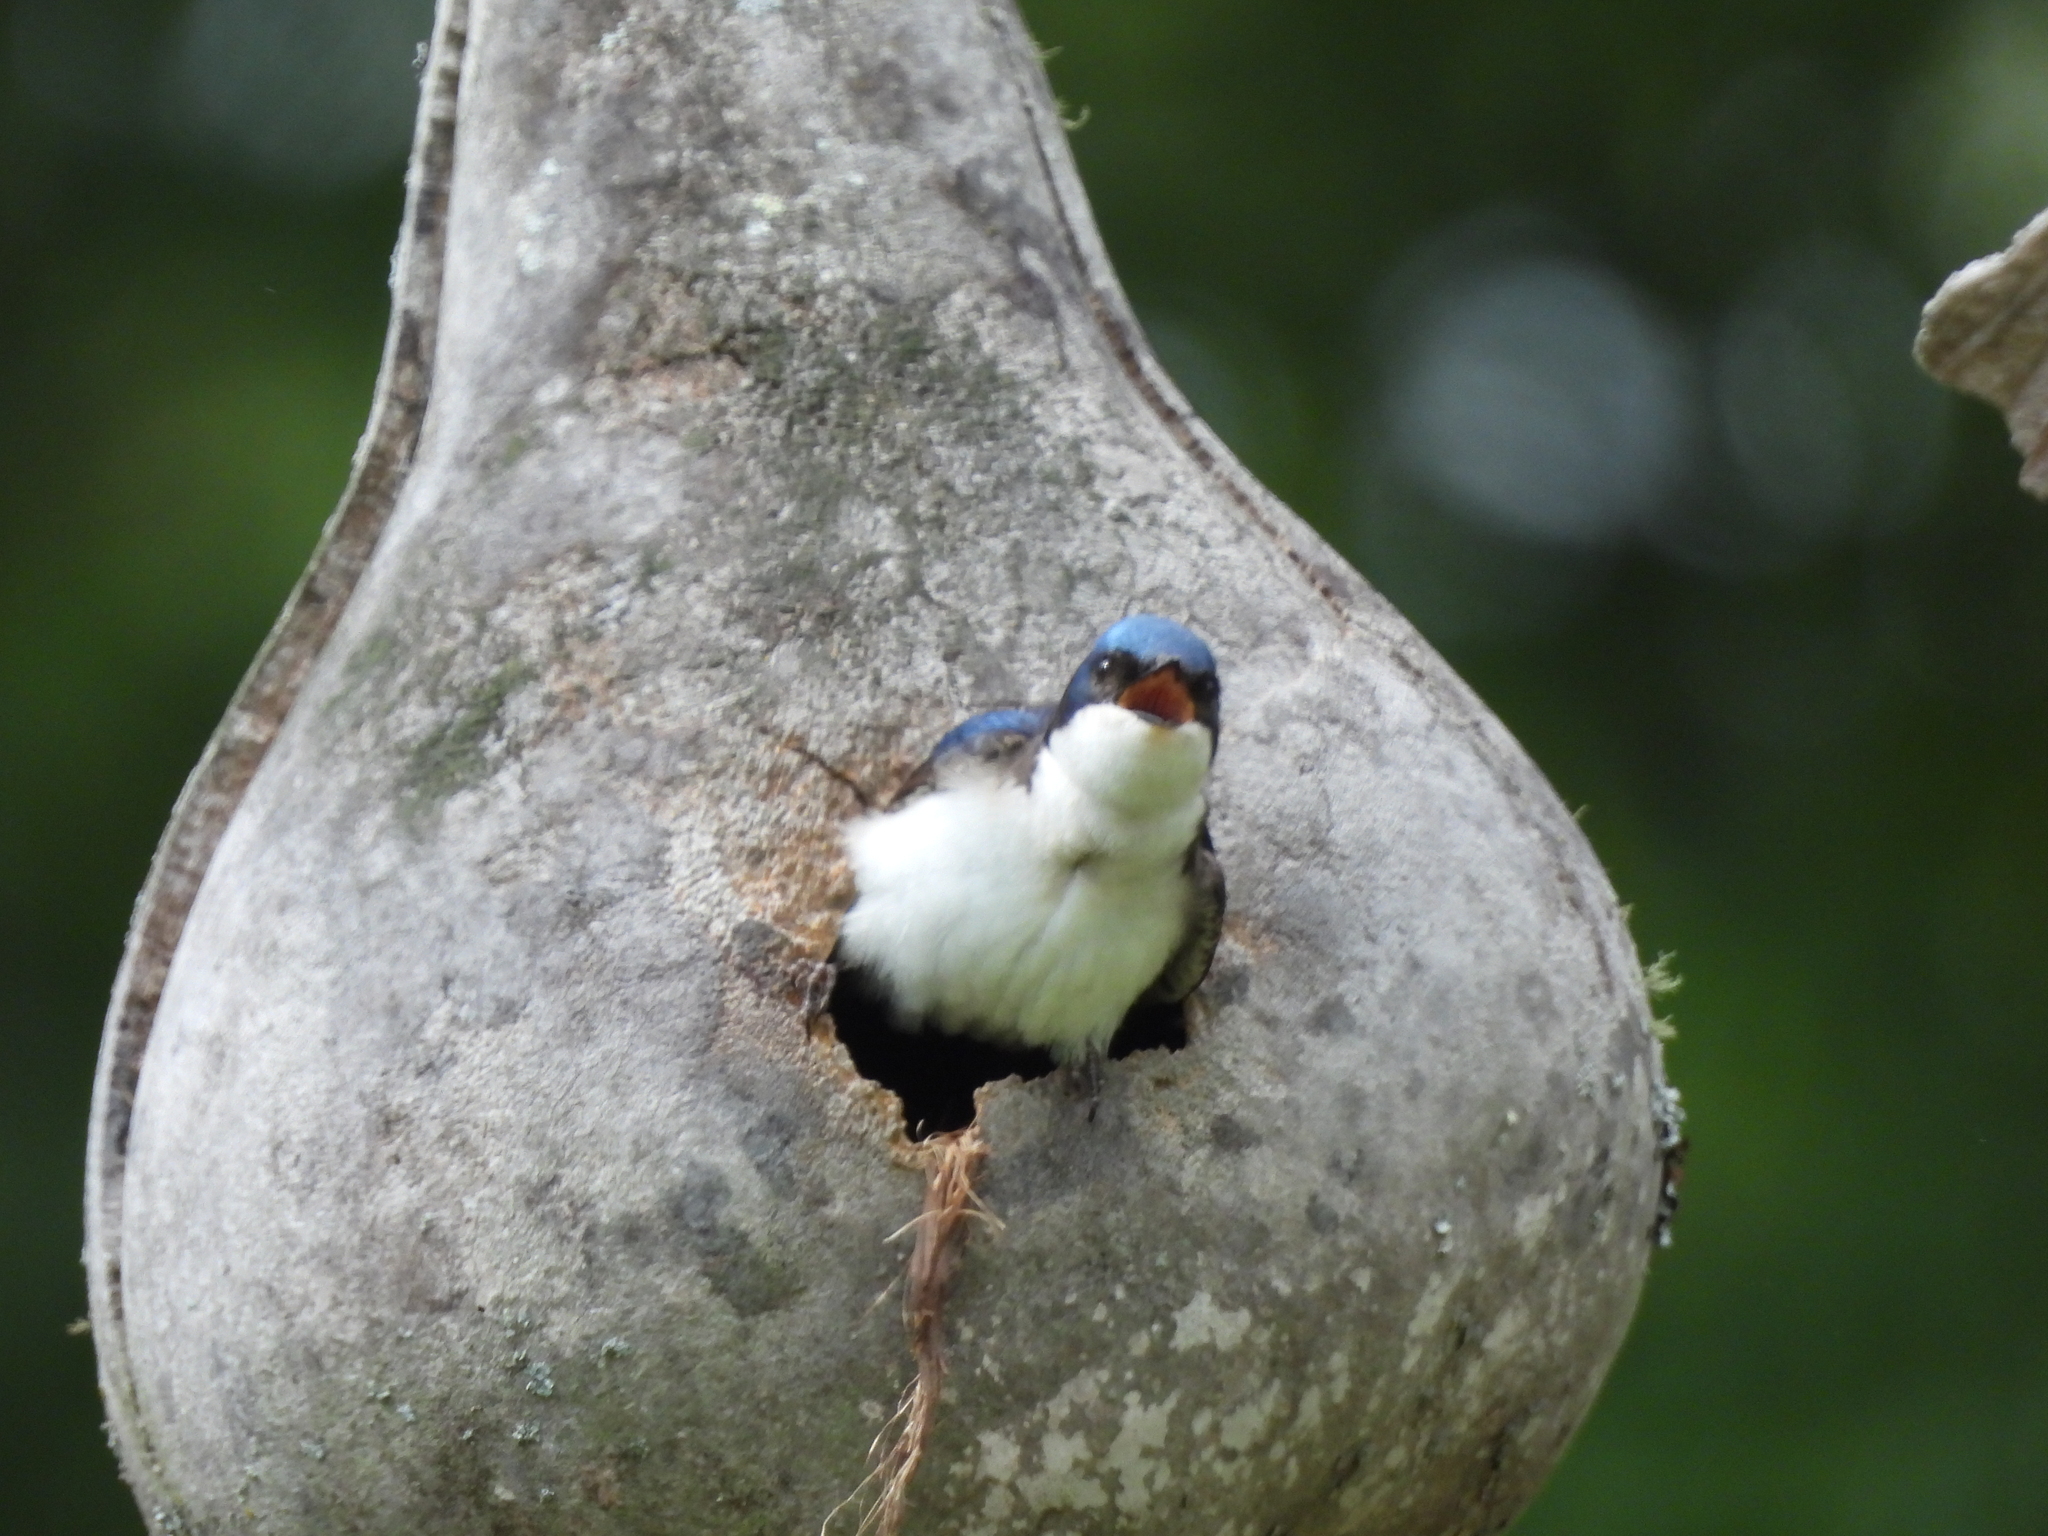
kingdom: Animalia
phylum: Chordata
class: Aves
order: Passeriformes
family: Hirundinidae
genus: Tachycineta
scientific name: Tachycineta bicolor
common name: Tree swallow
